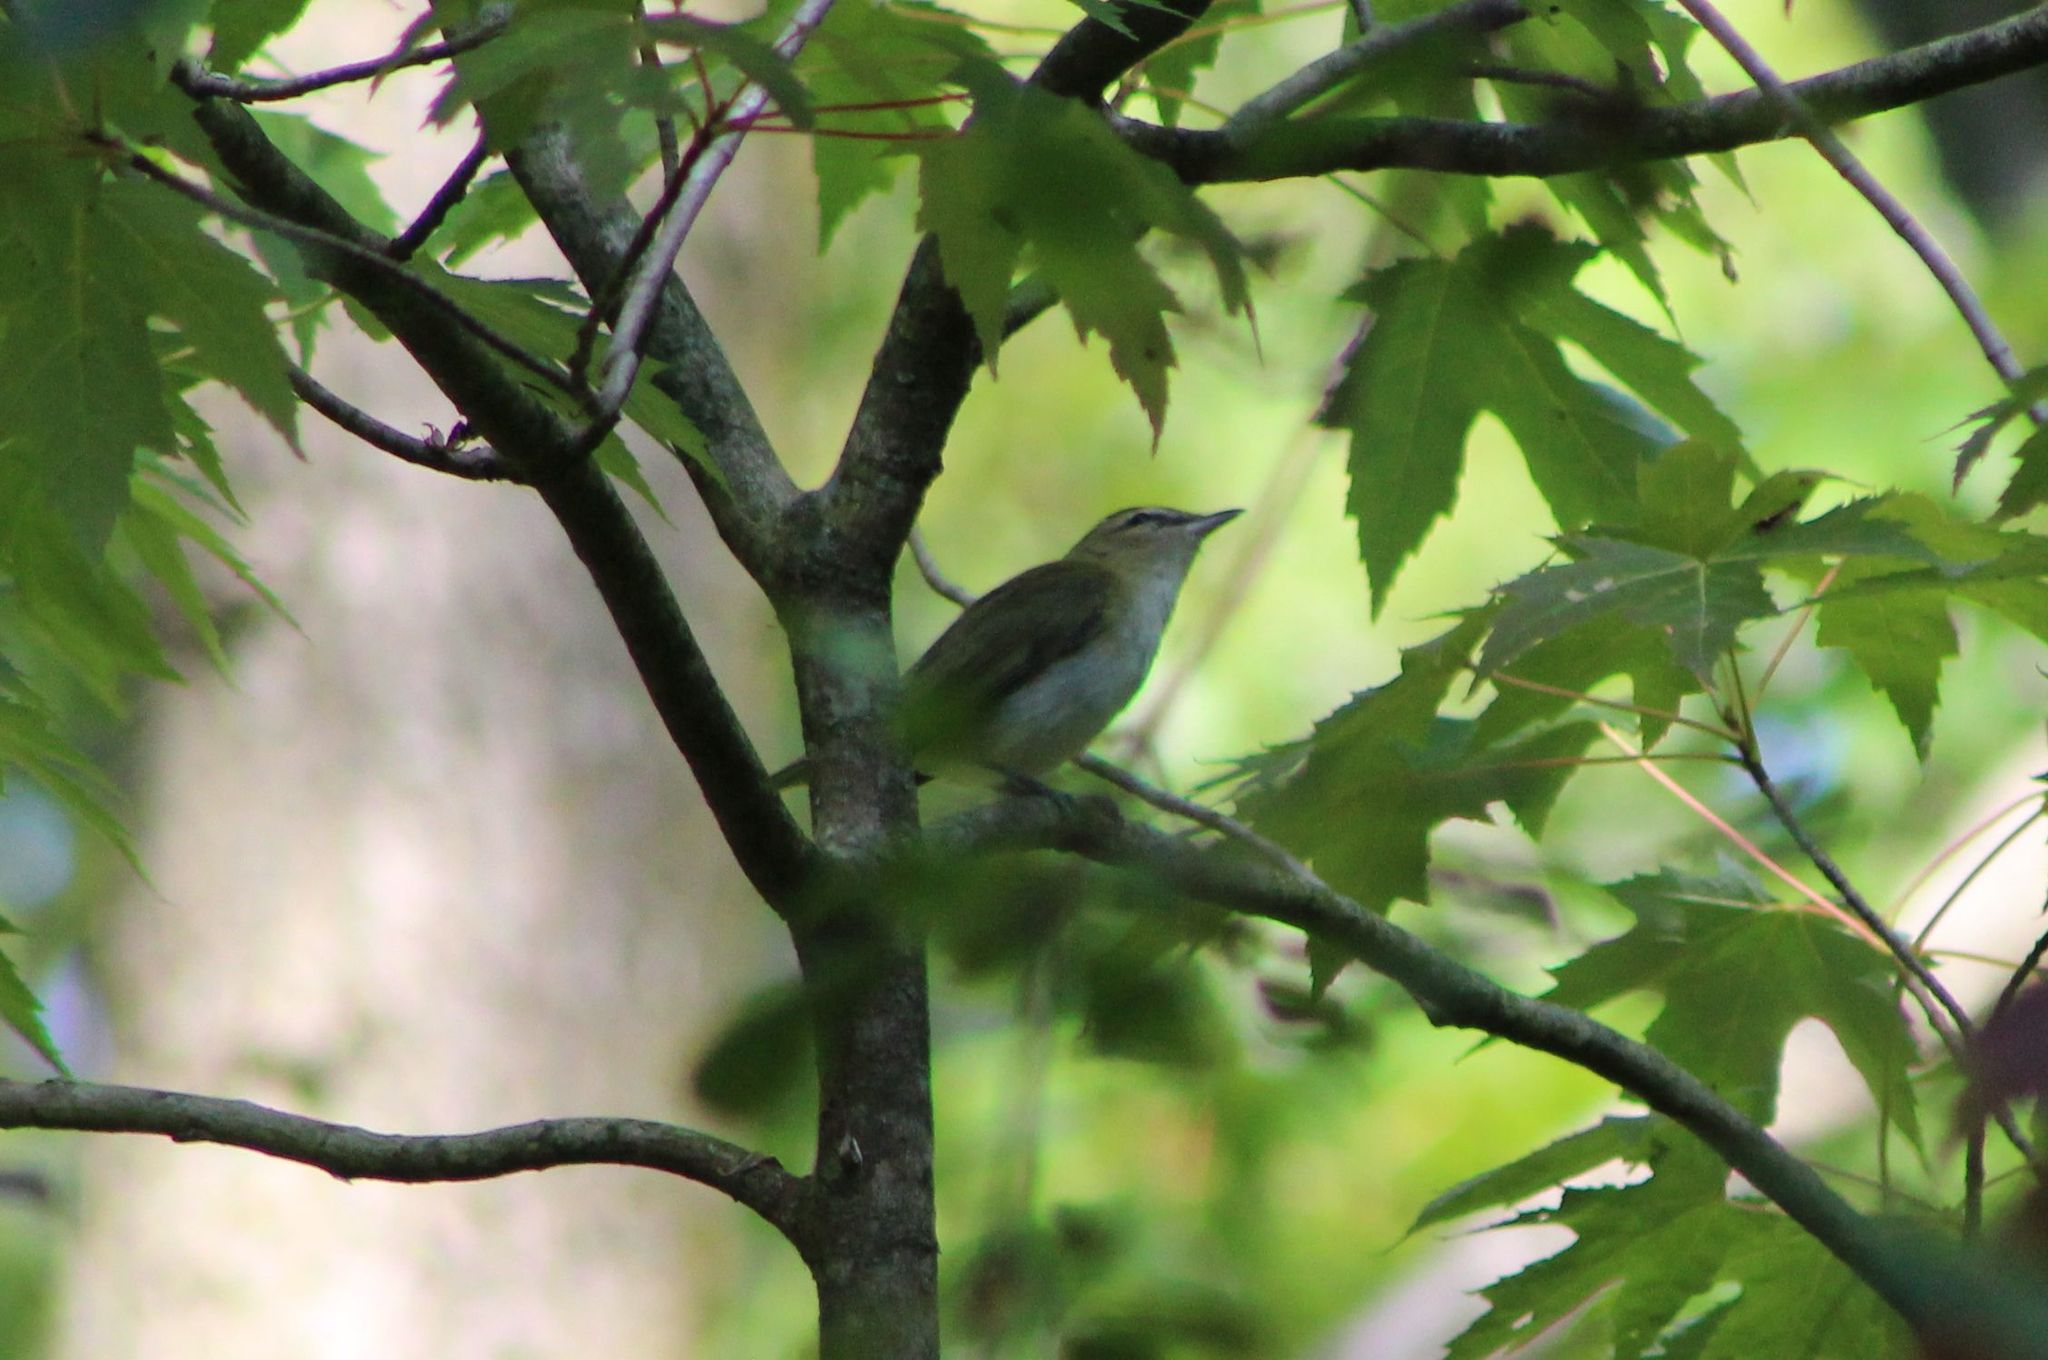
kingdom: Animalia
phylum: Chordata
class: Aves
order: Passeriformes
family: Vireonidae
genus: Vireo
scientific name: Vireo olivaceus
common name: Red-eyed vireo
